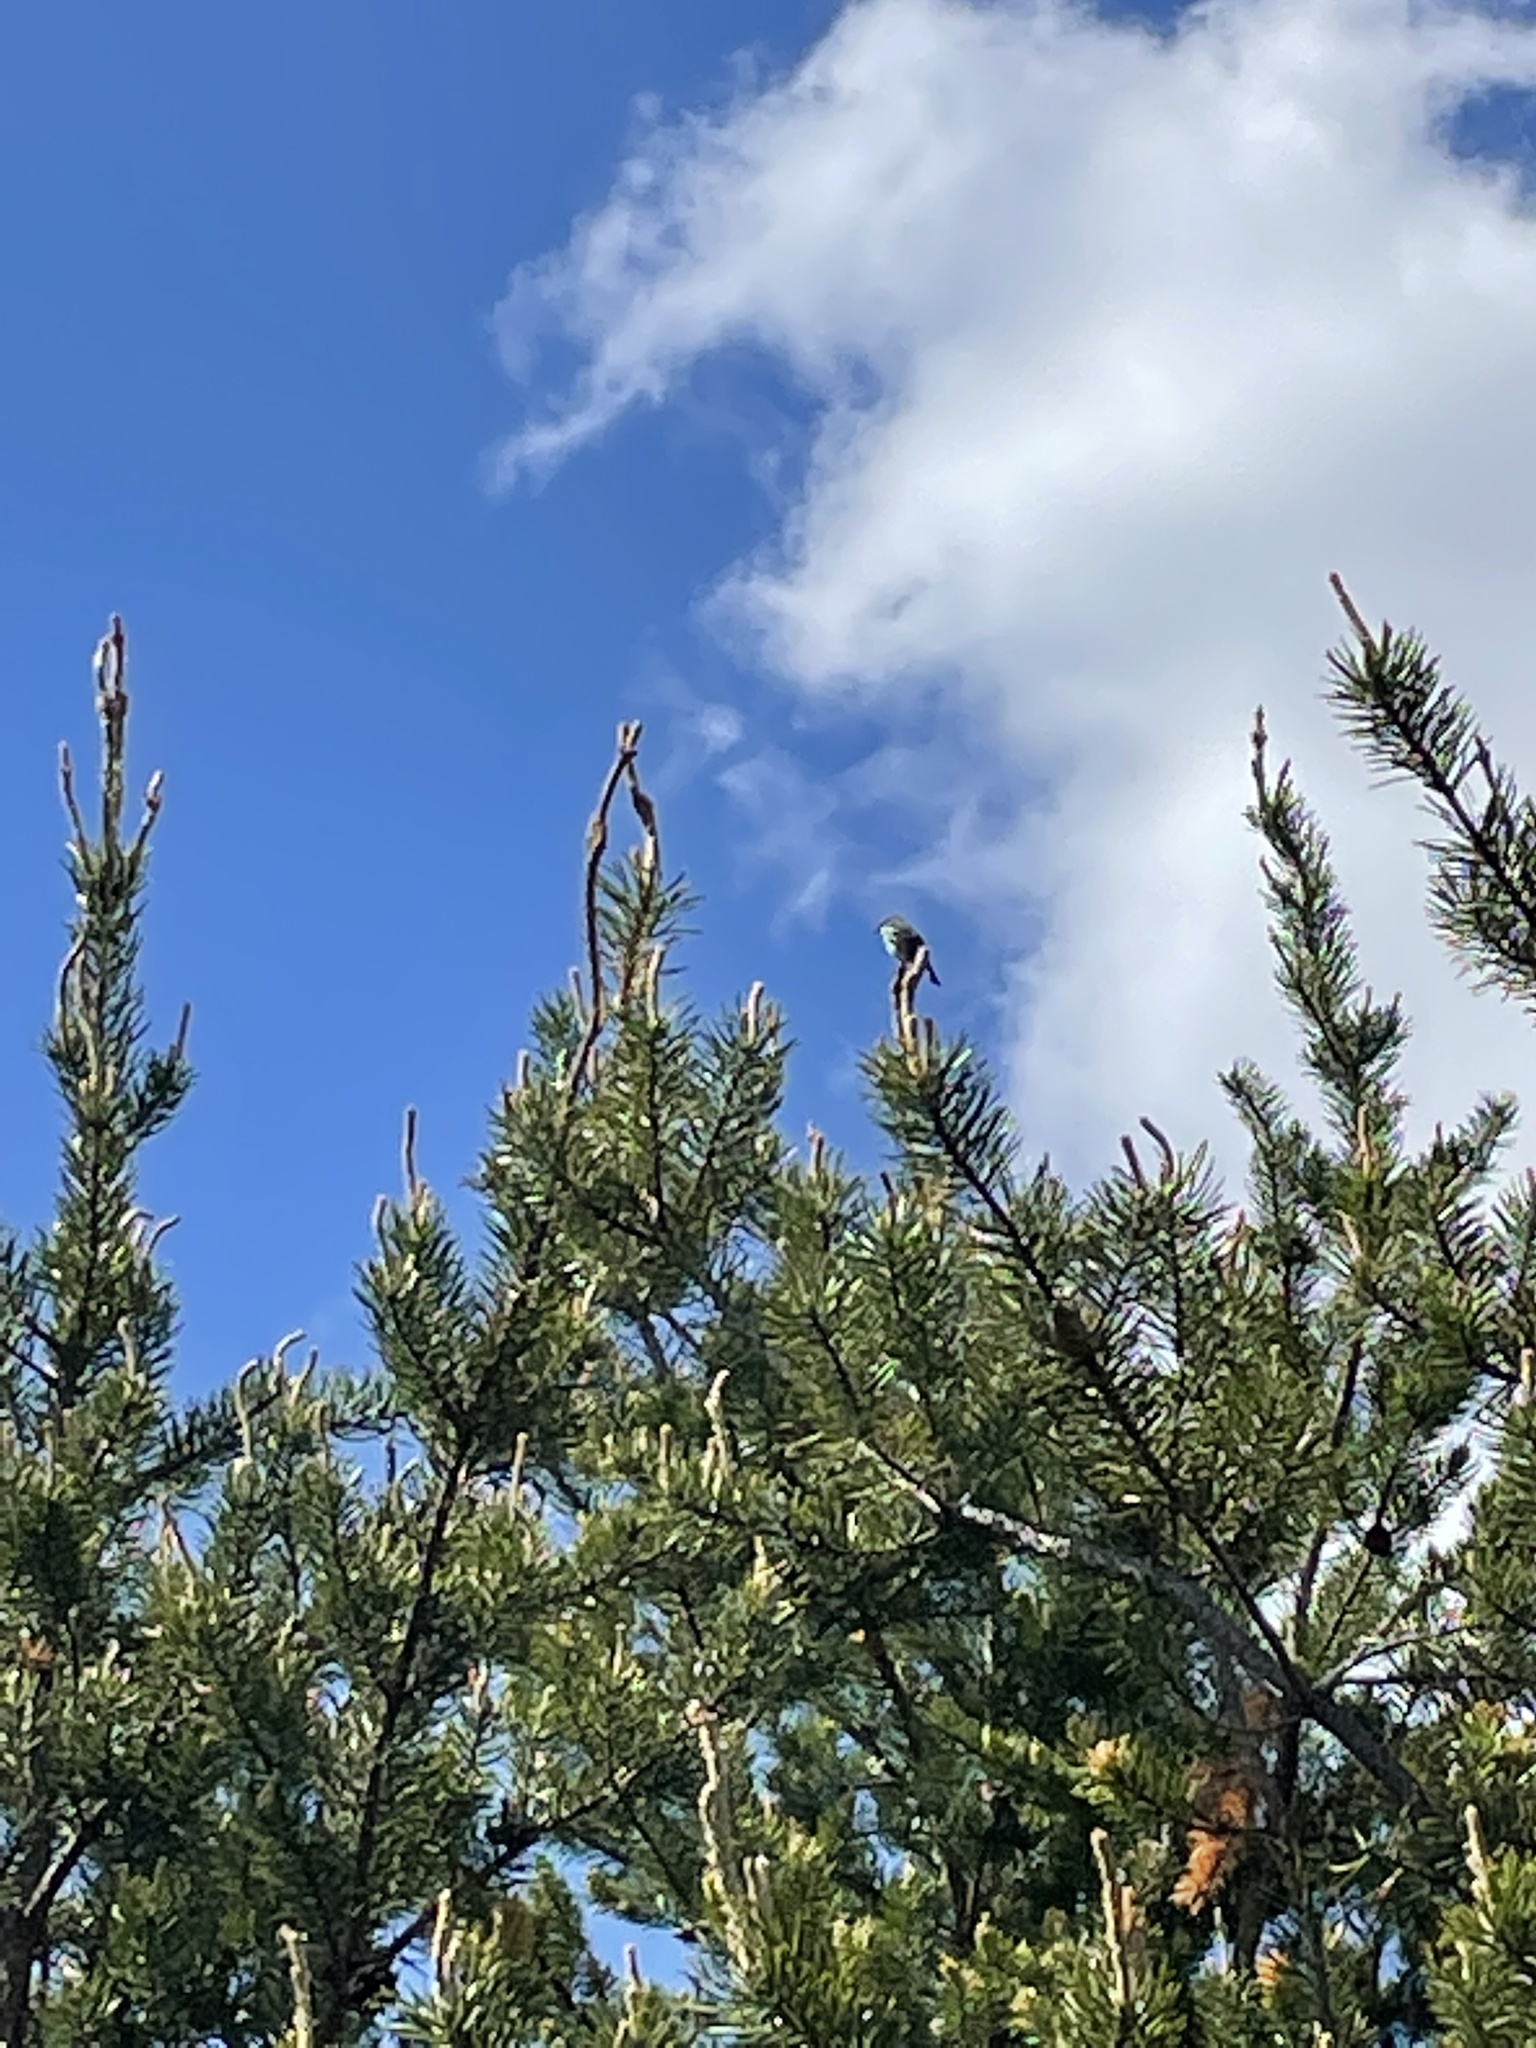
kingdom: Animalia
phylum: Chordata
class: Aves
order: Passeriformes
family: Parulidae
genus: Setophaga
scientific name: Setophaga kirtlandii
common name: Kirtland's warbler
